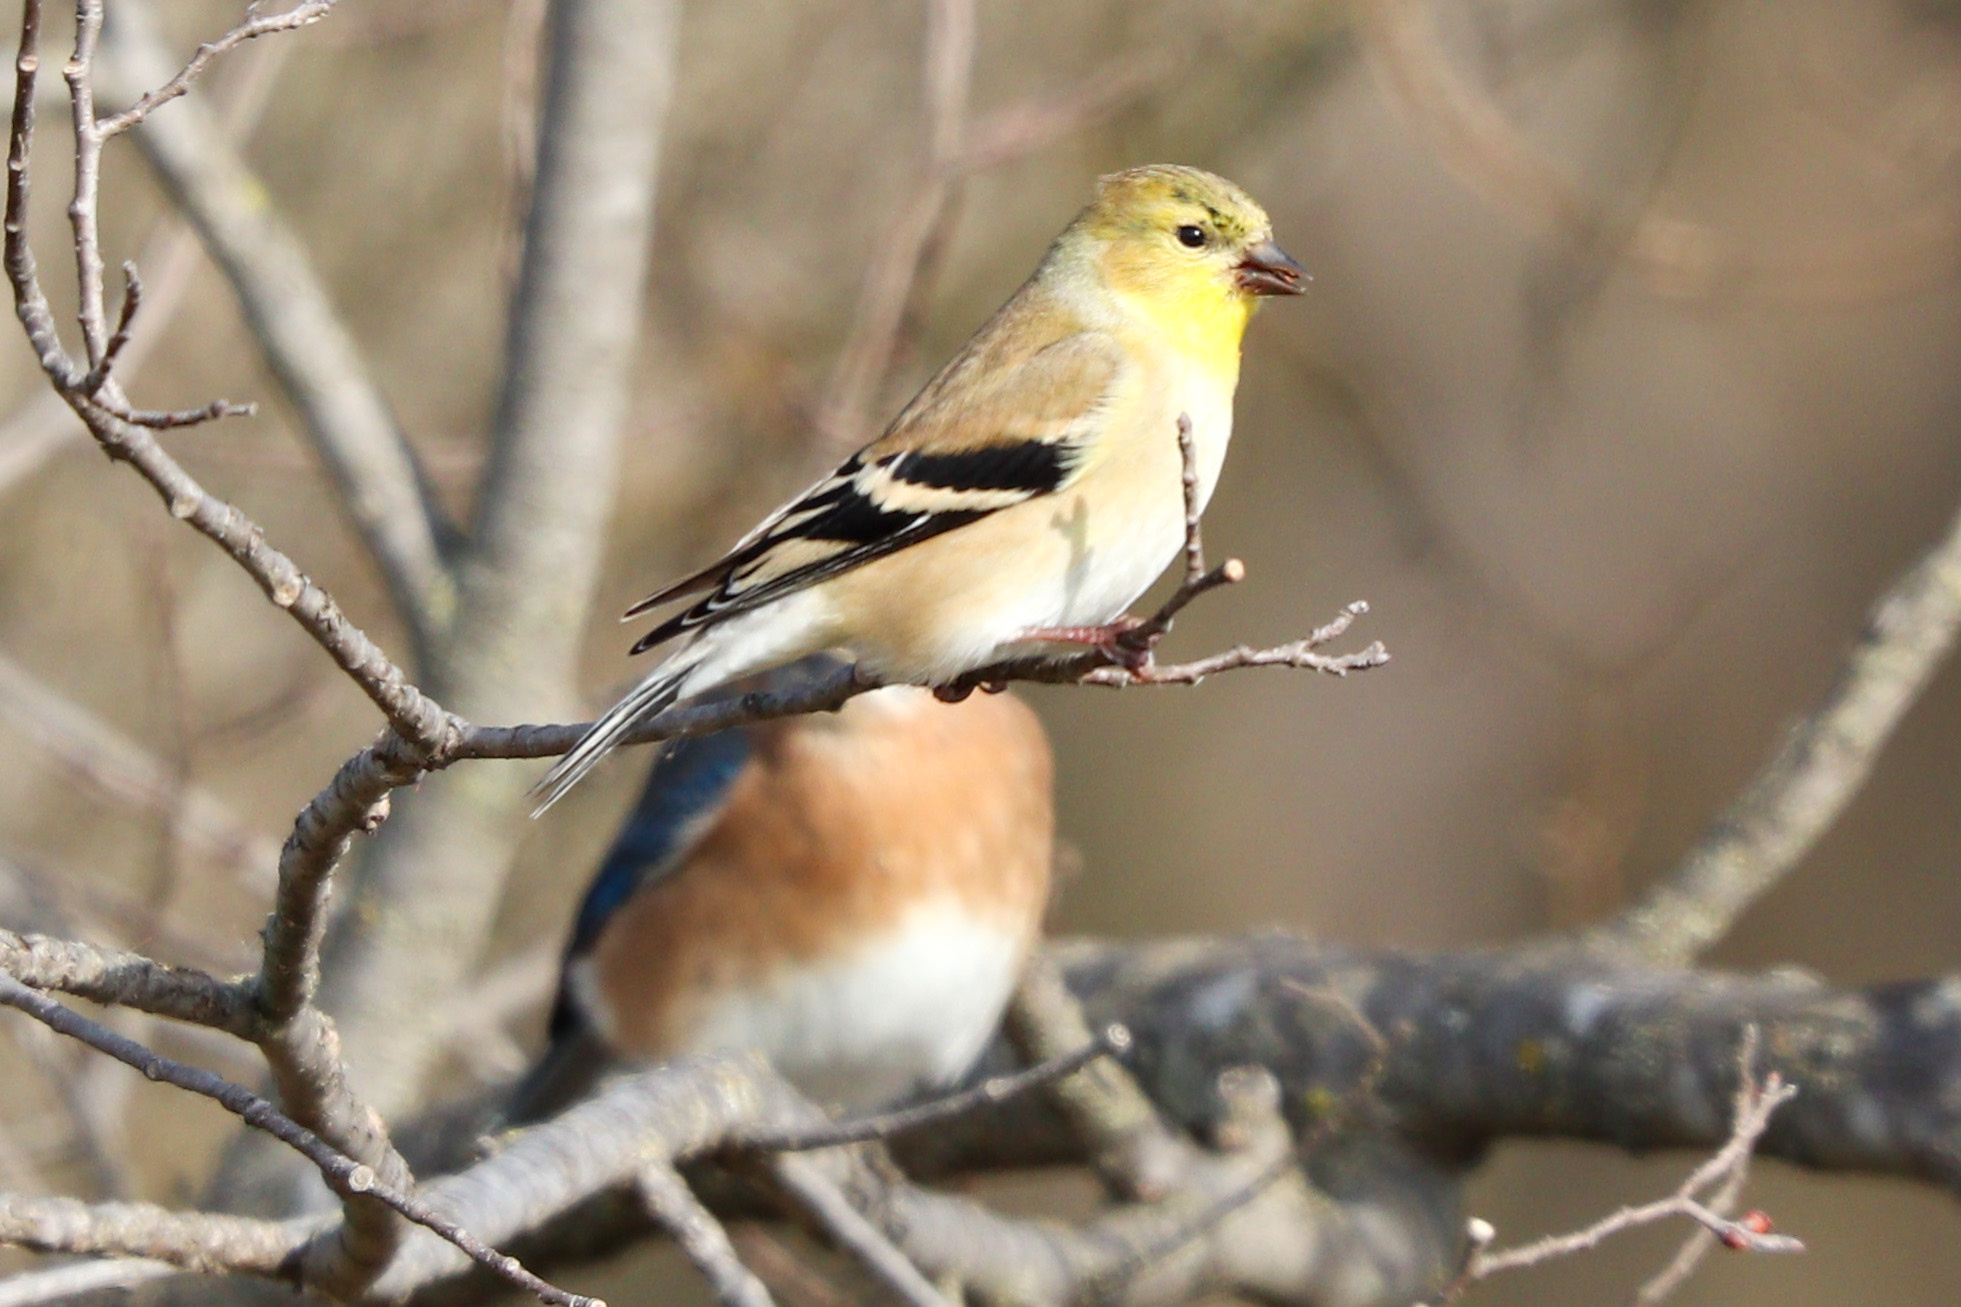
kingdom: Animalia
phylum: Chordata
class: Aves
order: Passeriformes
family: Fringillidae
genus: Spinus
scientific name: Spinus tristis
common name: American goldfinch
